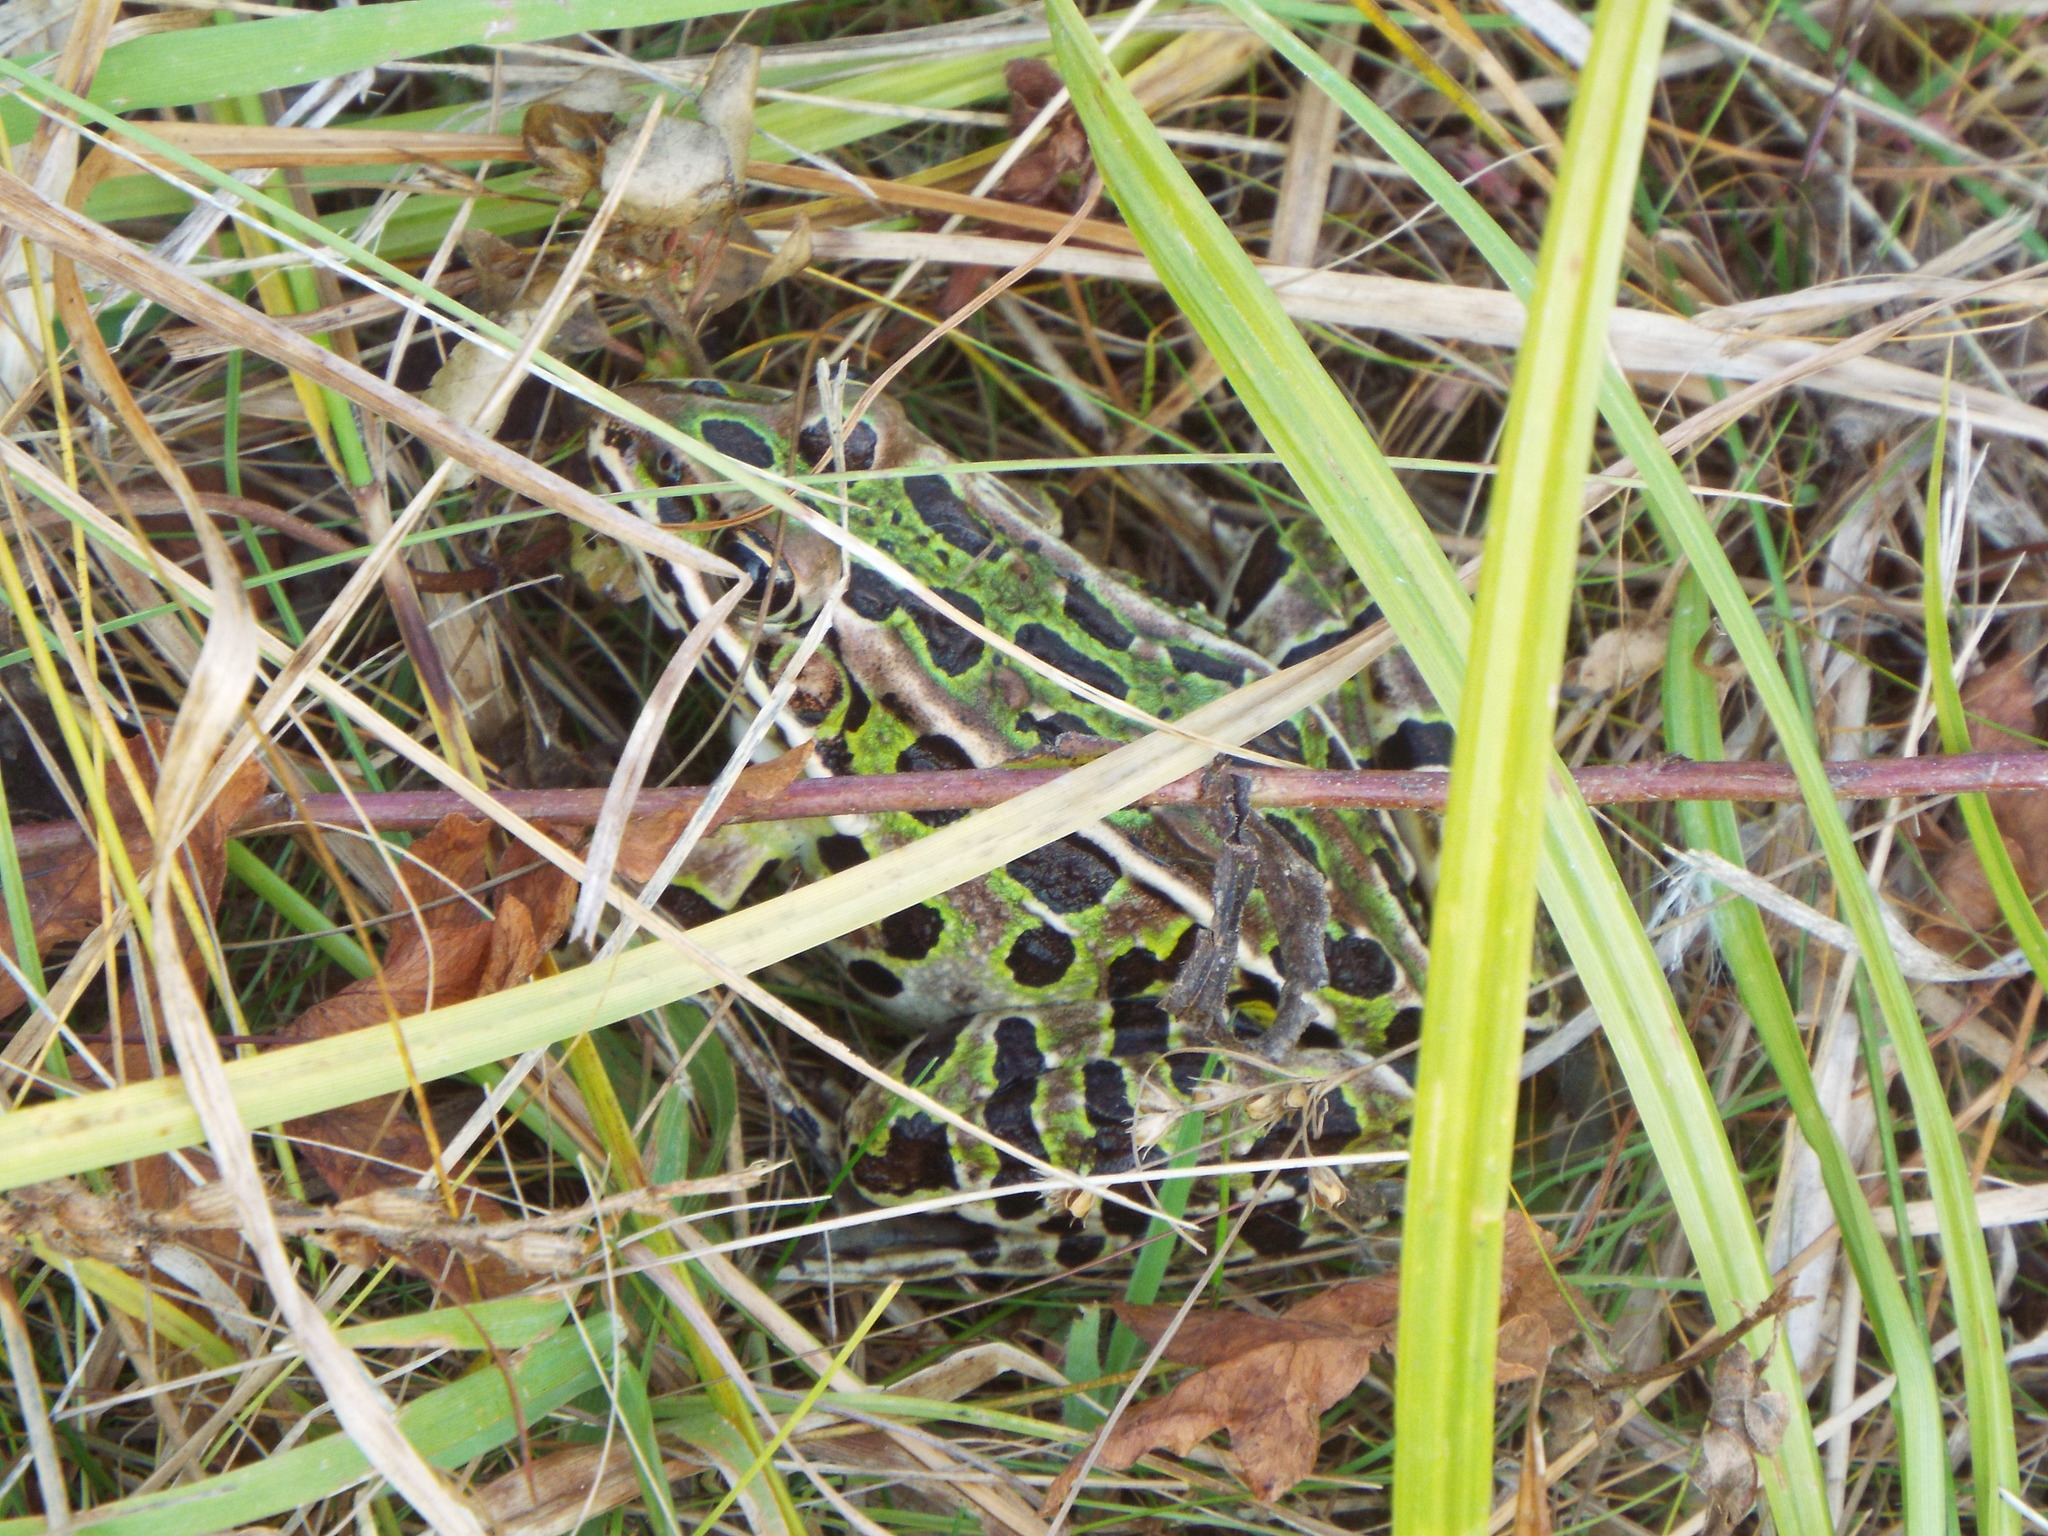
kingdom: Animalia
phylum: Chordata
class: Amphibia
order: Anura
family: Ranidae
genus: Lithobates
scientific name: Lithobates pipiens
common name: Northern leopard frog
